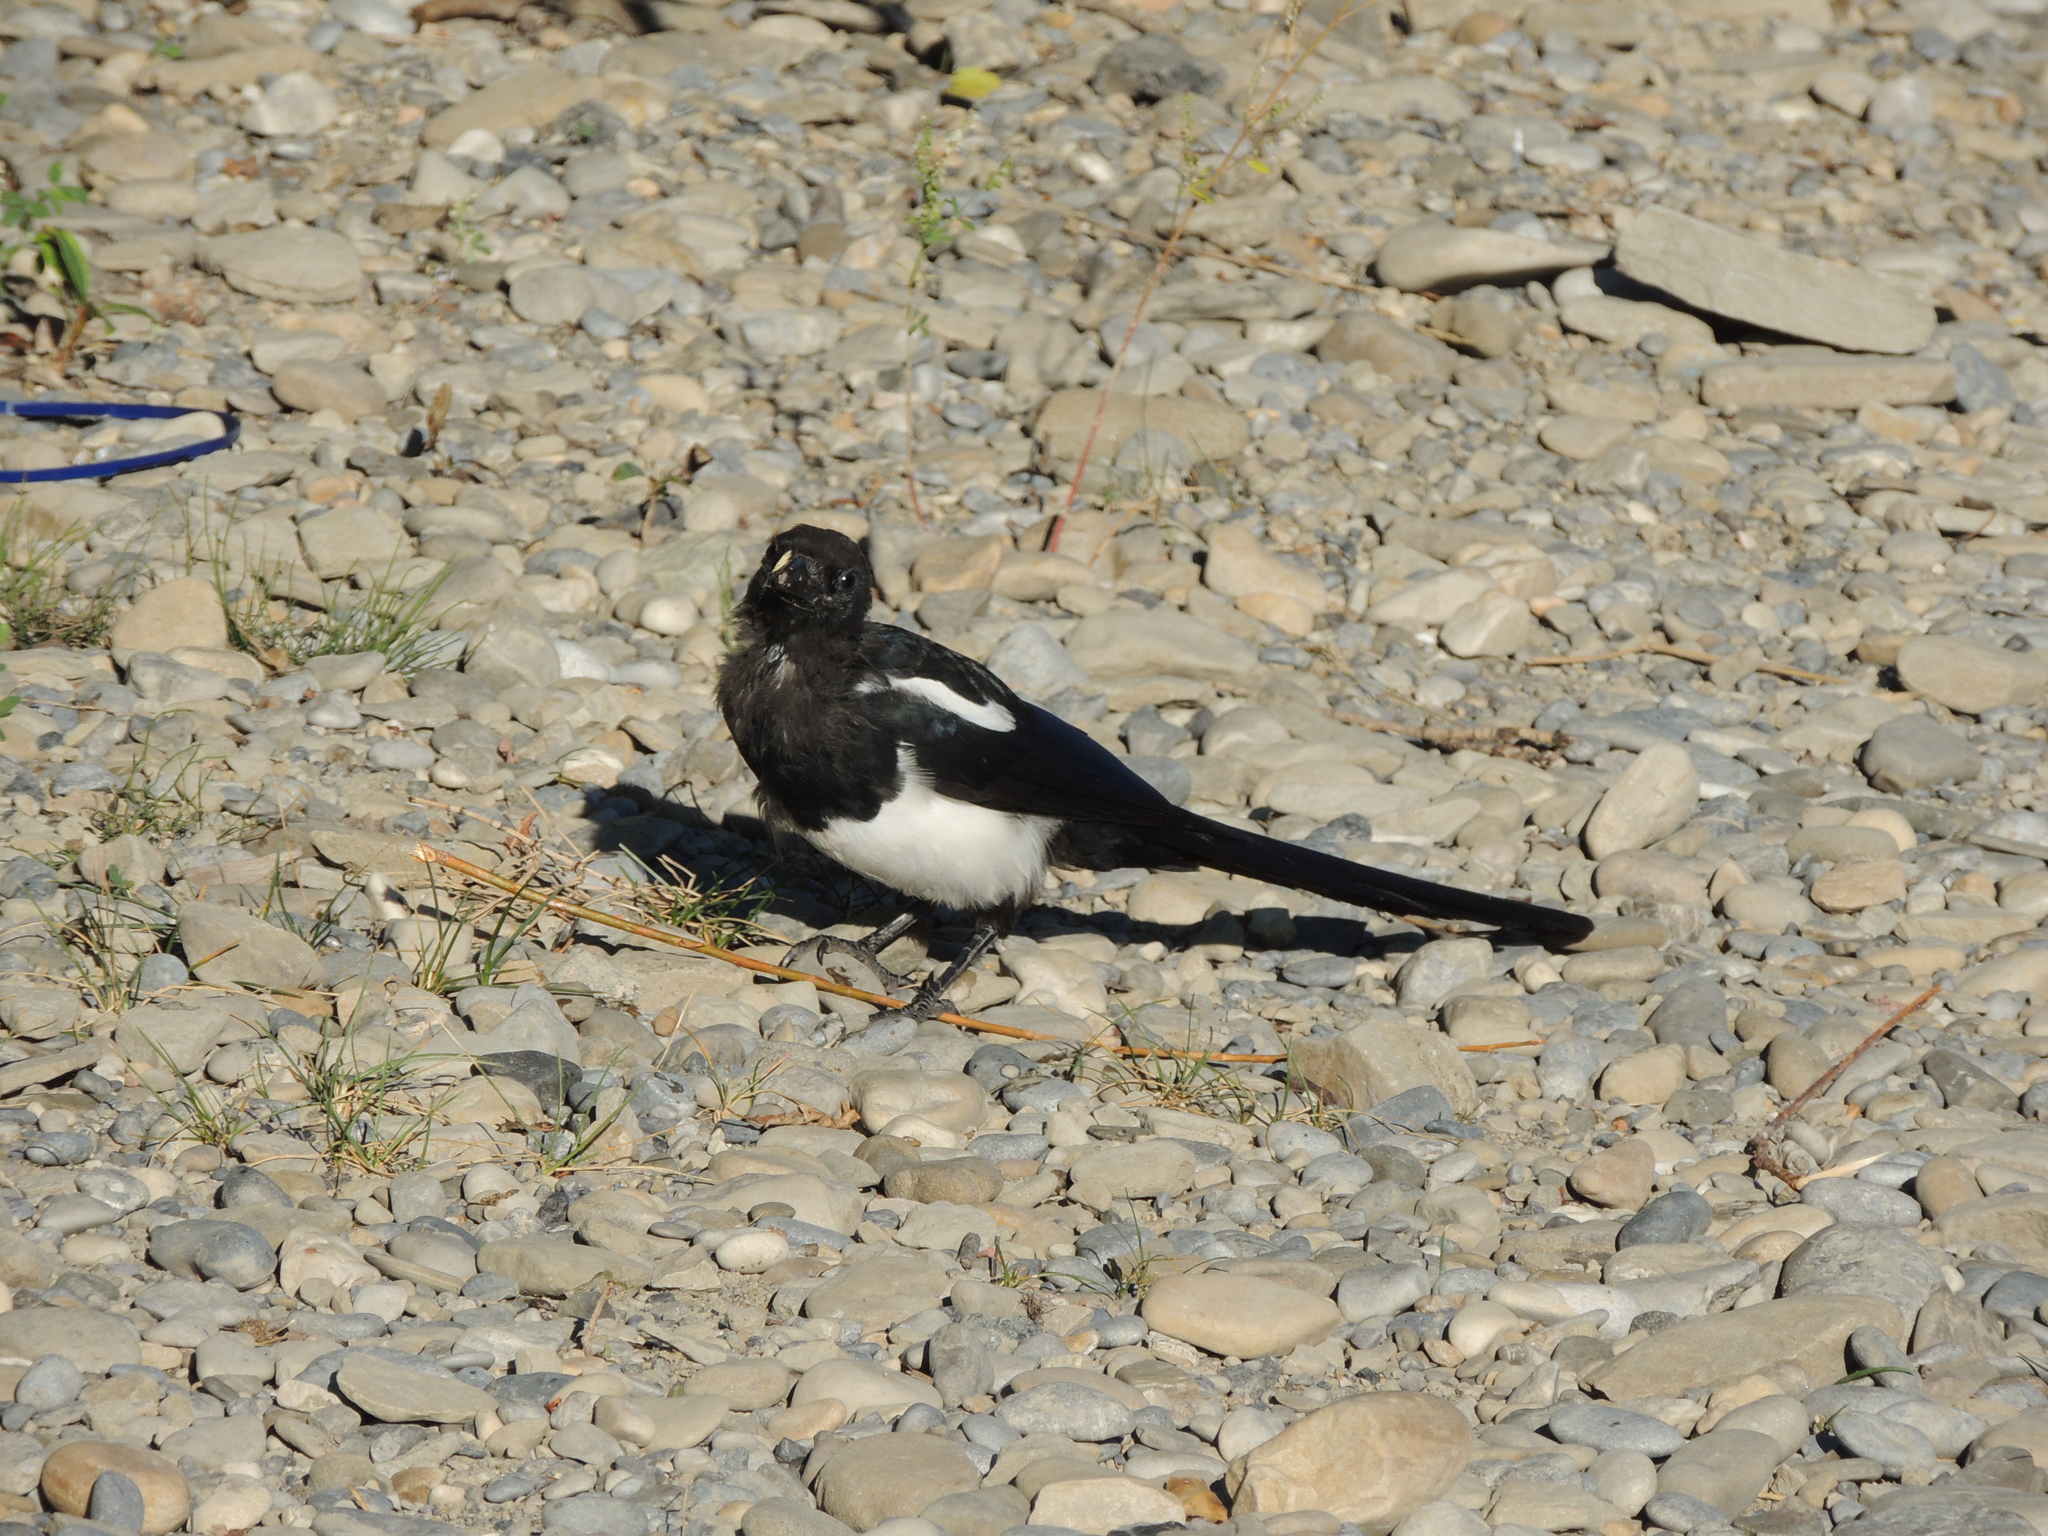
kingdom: Animalia
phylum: Chordata
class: Aves
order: Passeriformes
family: Corvidae
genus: Pica
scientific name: Pica hudsonia
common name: Black-billed magpie
